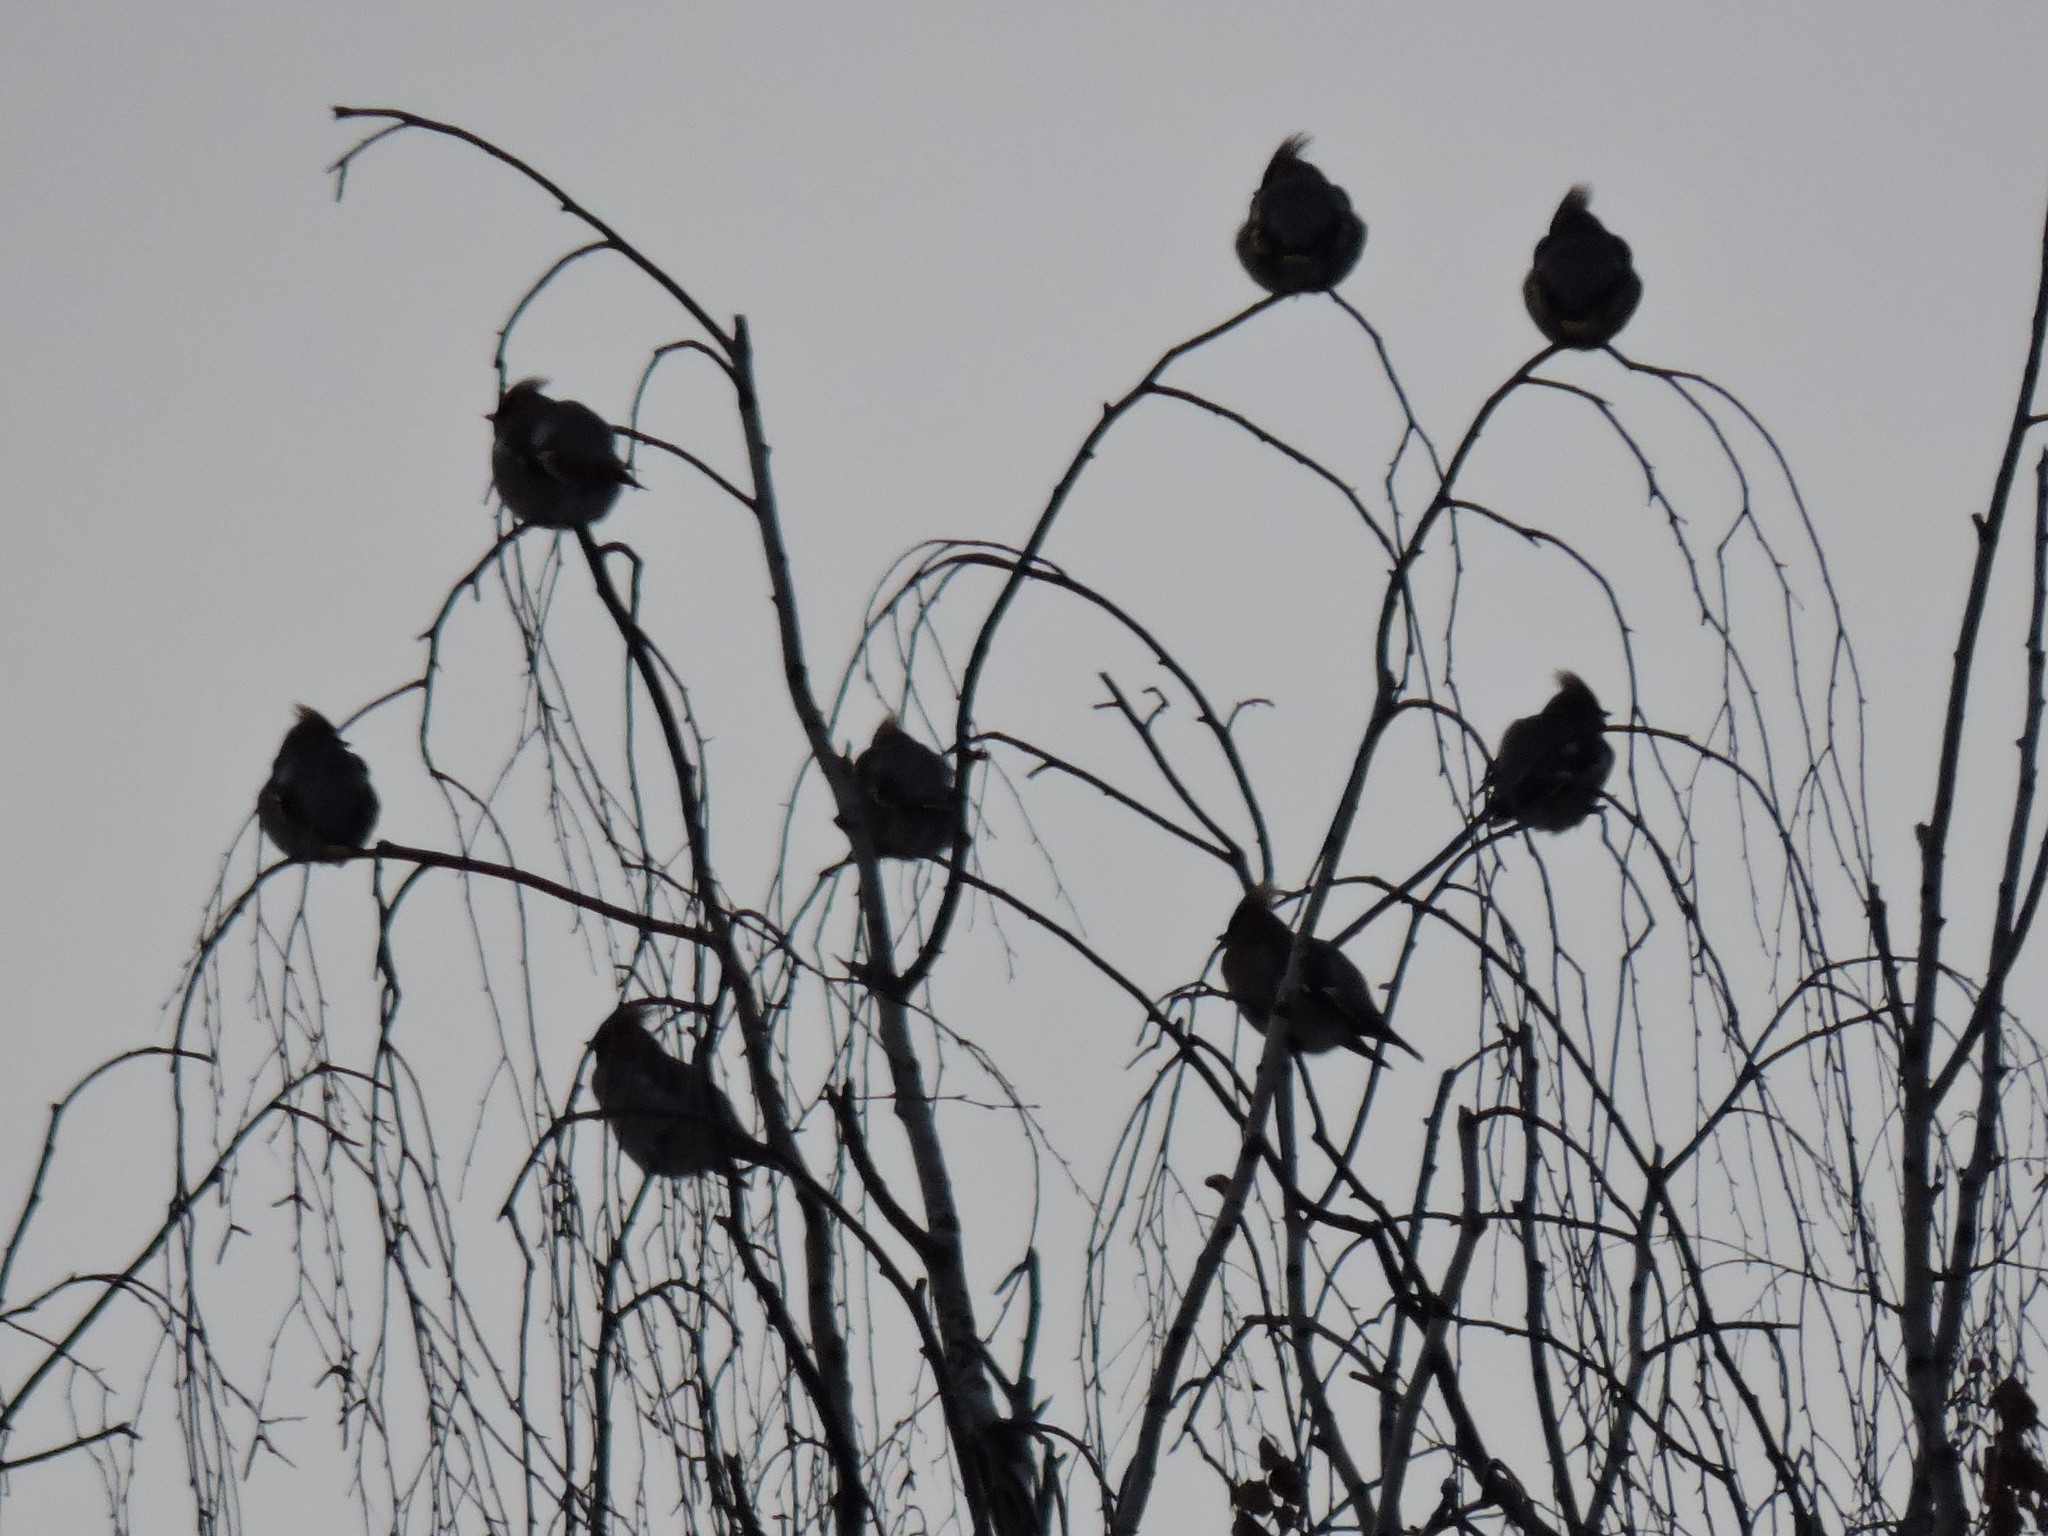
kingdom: Animalia
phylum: Chordata
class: Aves
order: Passeriformes
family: Bombycillidae
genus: Bombycilla
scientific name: Bombycilla garrulus
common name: Bohemian waxwing
